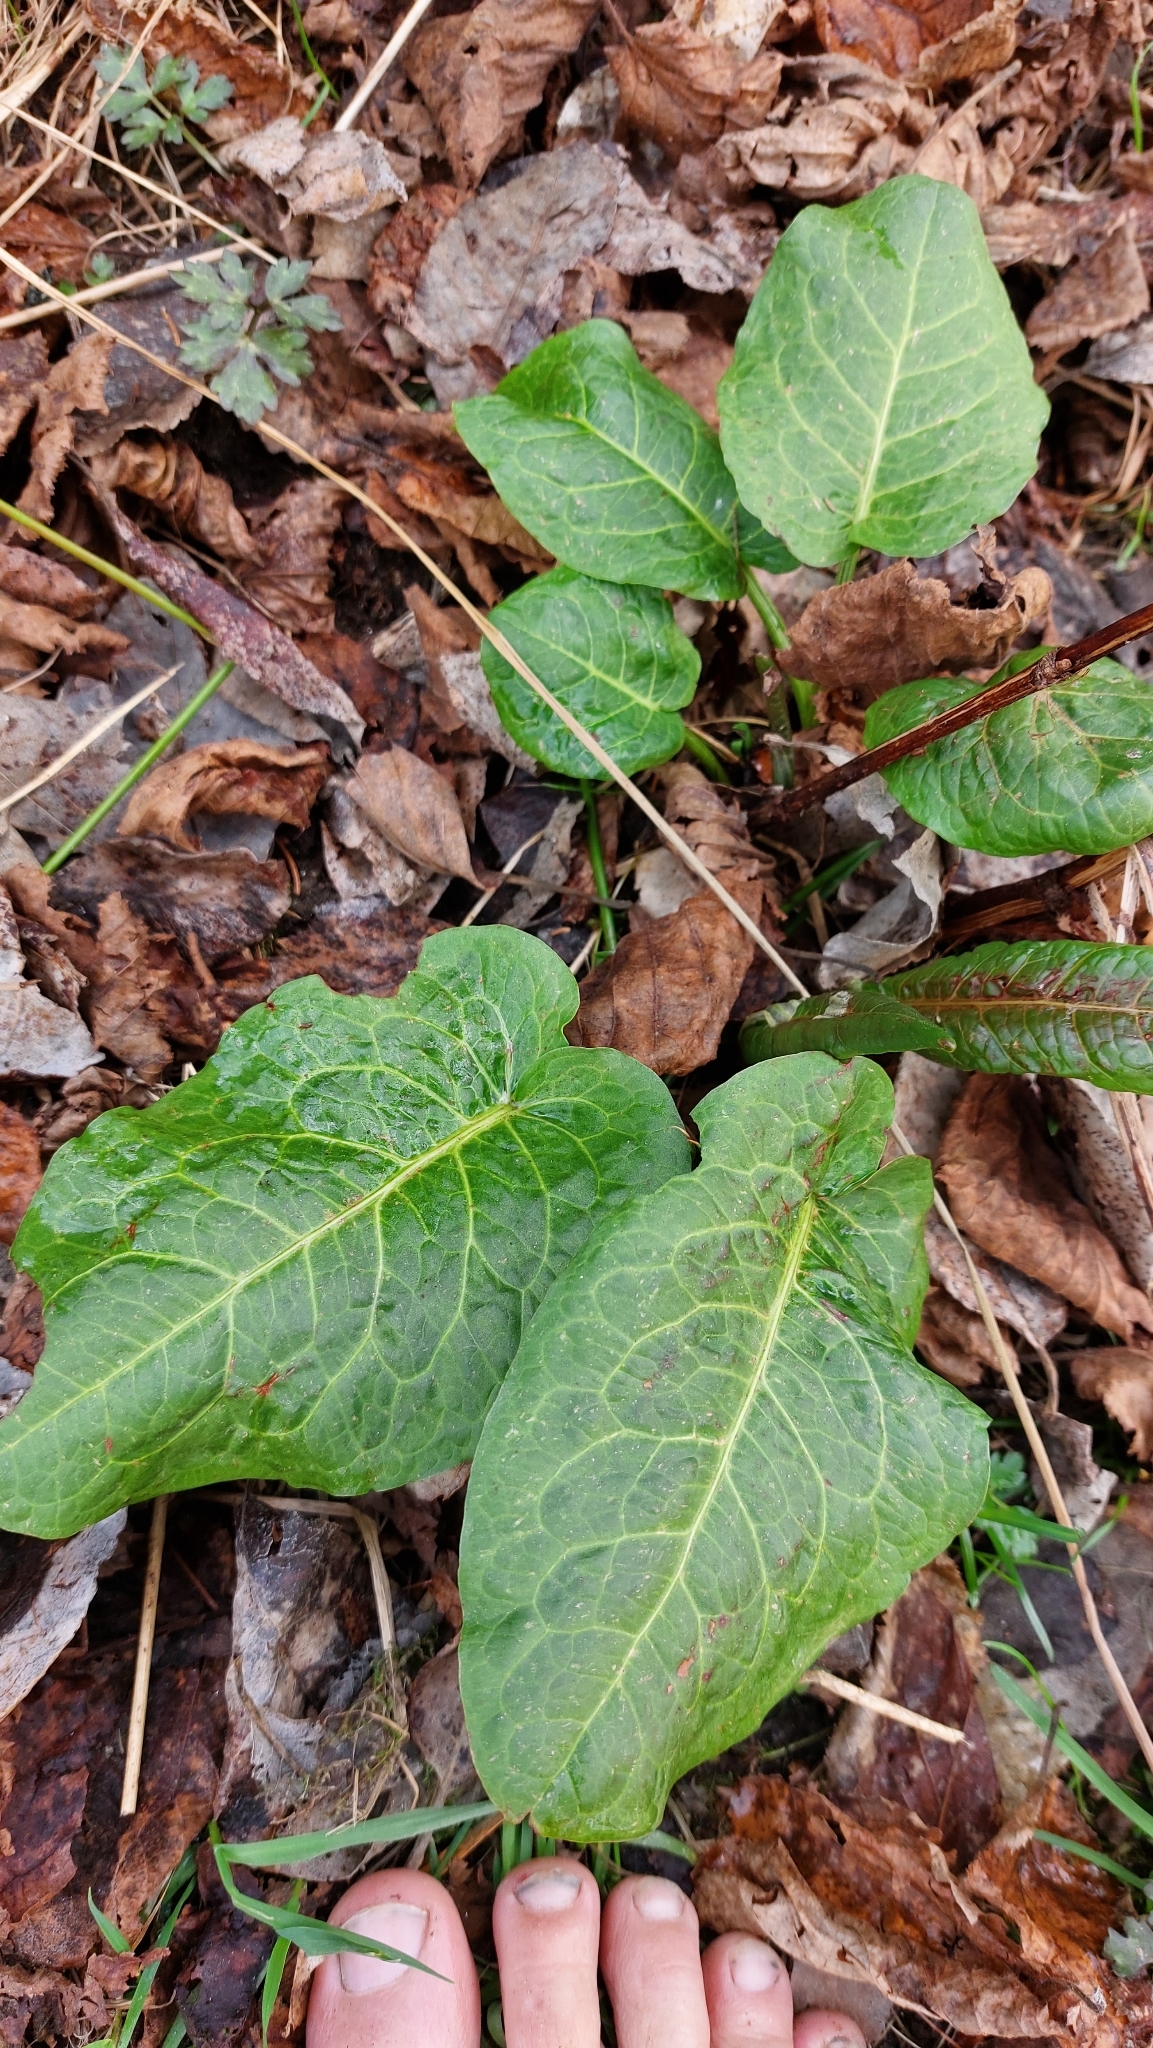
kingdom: Plantae
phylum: Tracheophyta
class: Magnoliopsida
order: Caryophyllales
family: Polygonaceae
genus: Rumex
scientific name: Rumex obtusifolius
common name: Bitter dock
